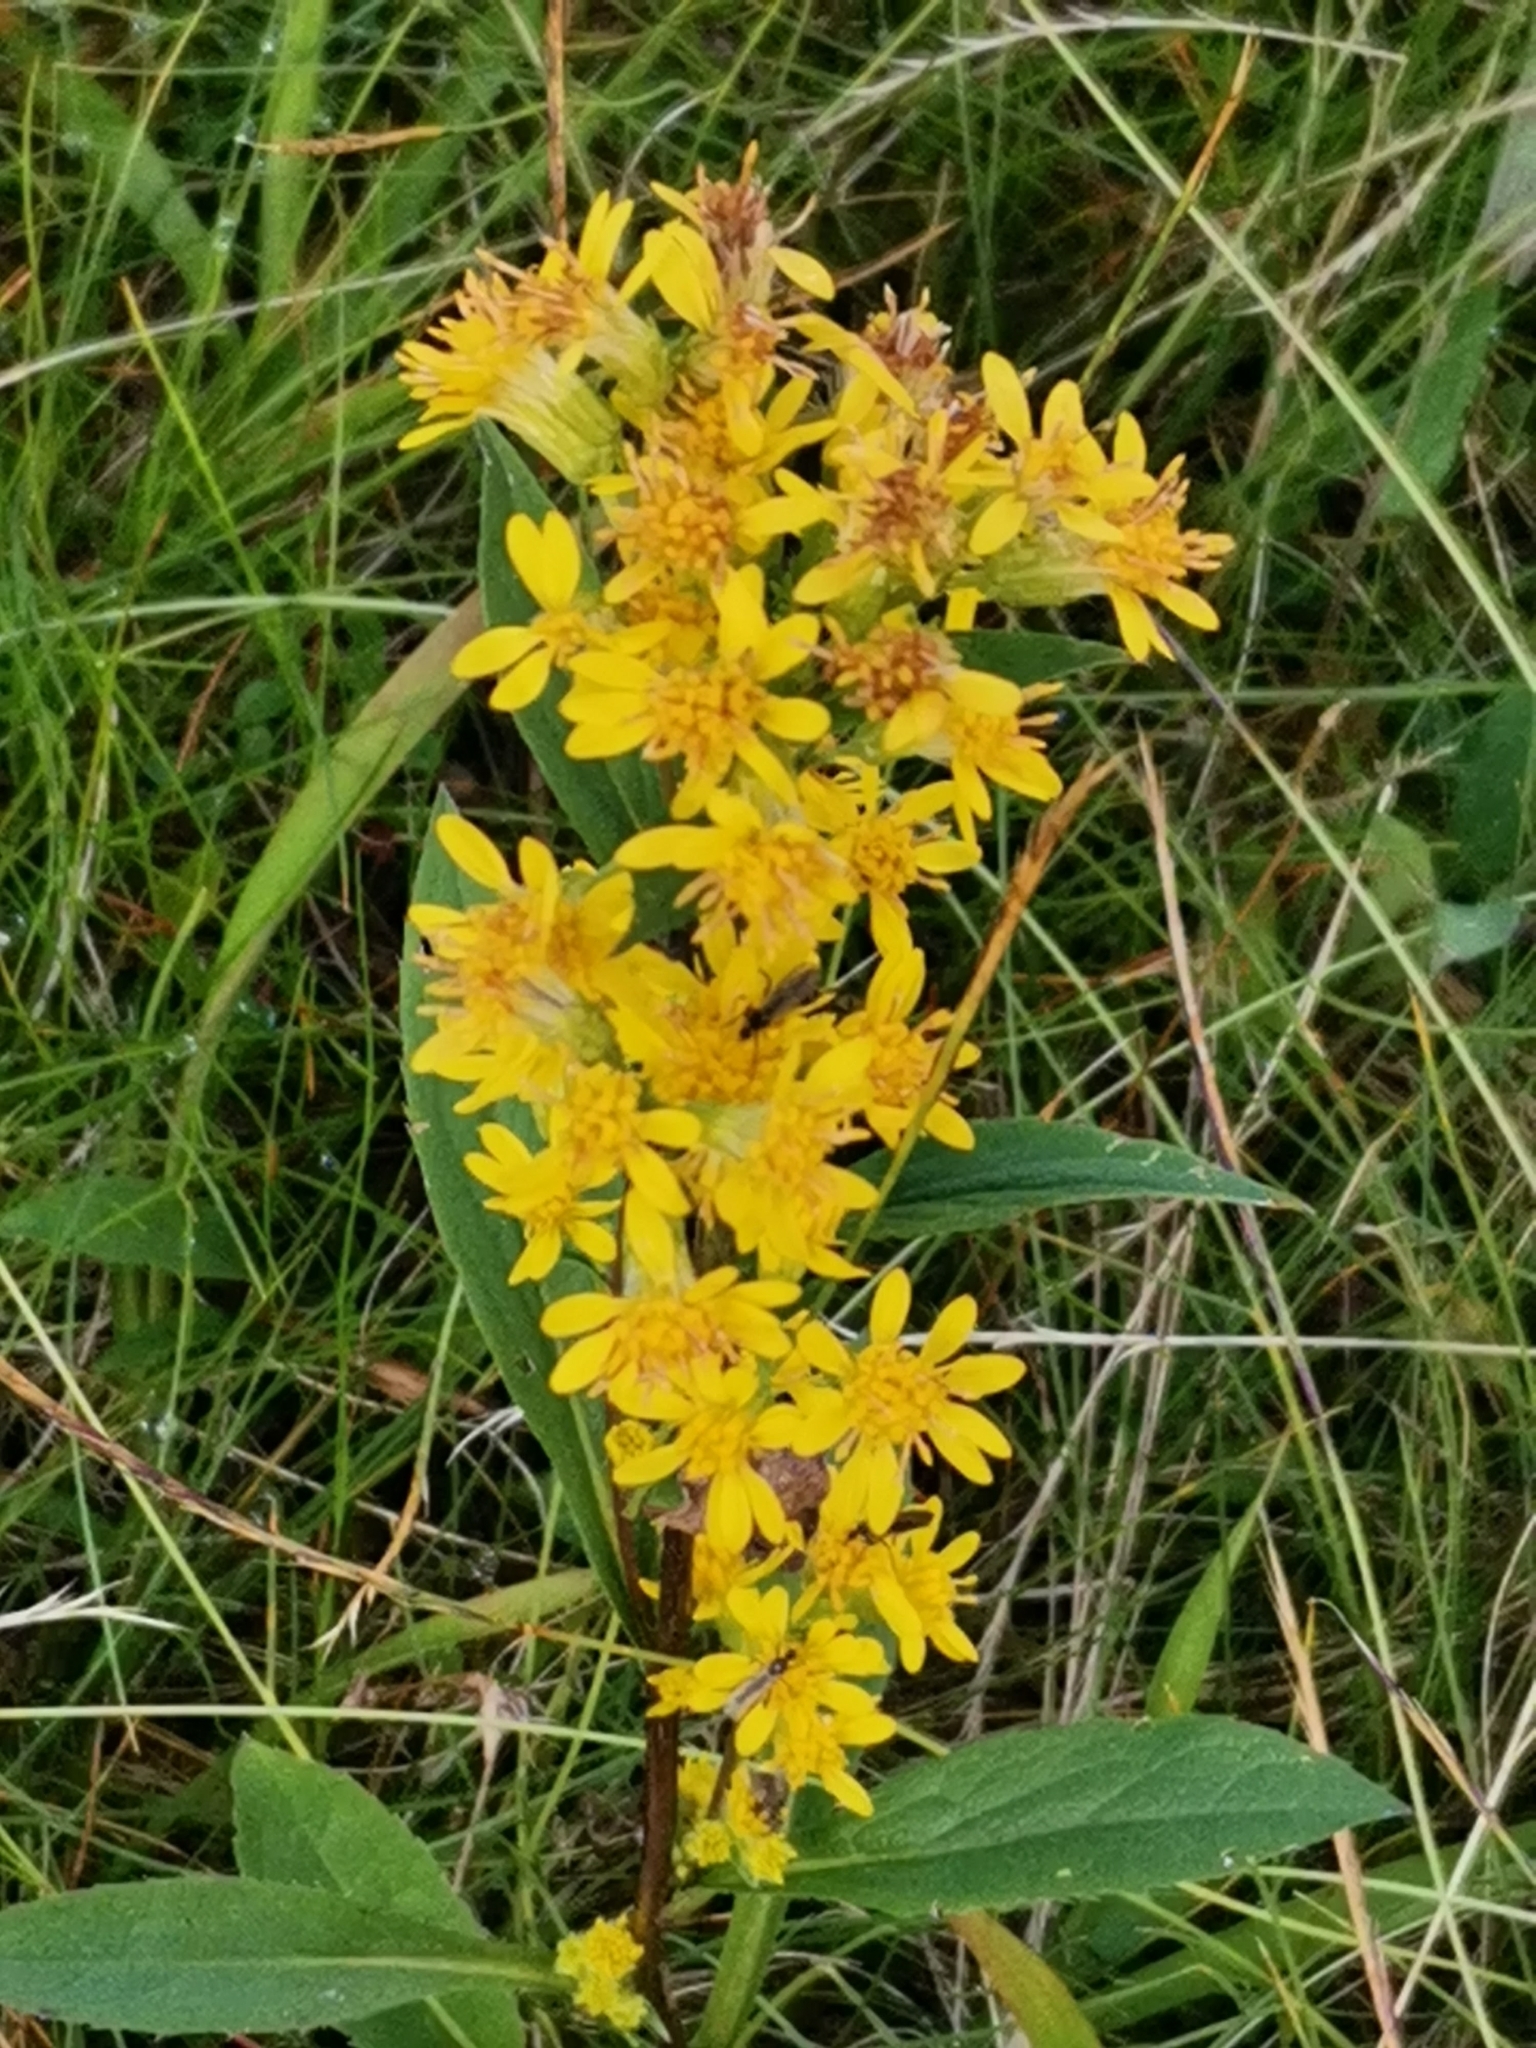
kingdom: Plantae
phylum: Tracheophyta
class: Magnoliopsida
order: Asterales
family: Asteraceae
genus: Solidago
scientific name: Solidago virgaurea
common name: Goldenrod
